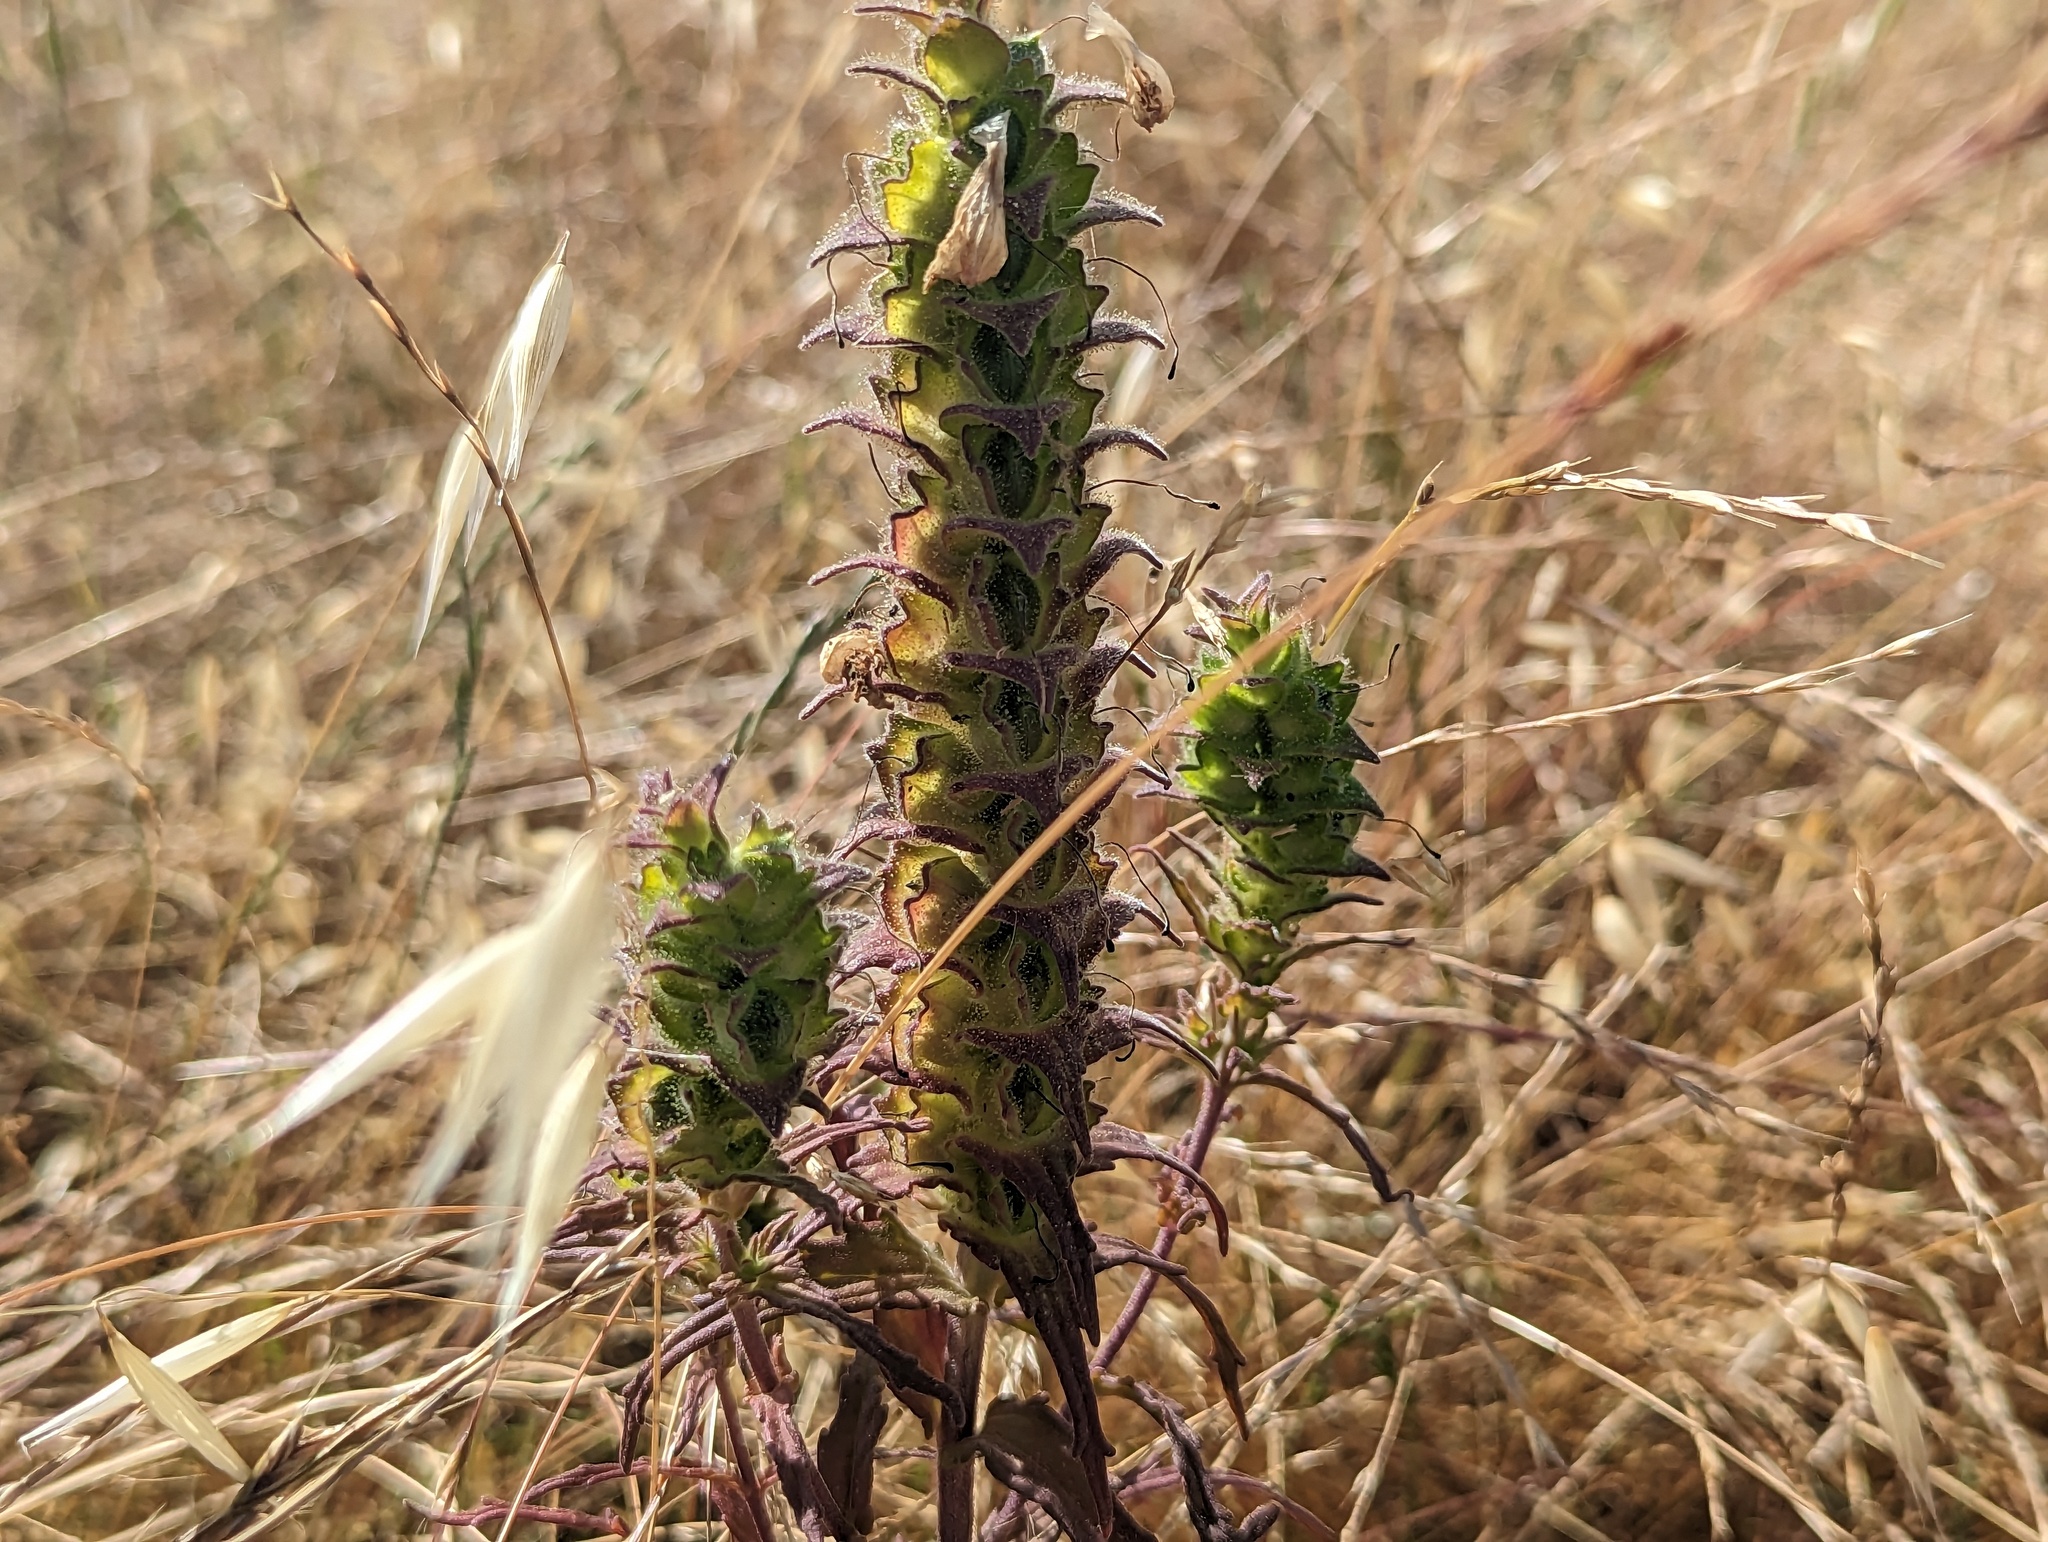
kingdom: Plantae
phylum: Tracheophyta
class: Magnoliopsida
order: Lamiales
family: Orobanchaceae
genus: Bellardia
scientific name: Bellardia trixago
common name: Mediterranean lineseed
